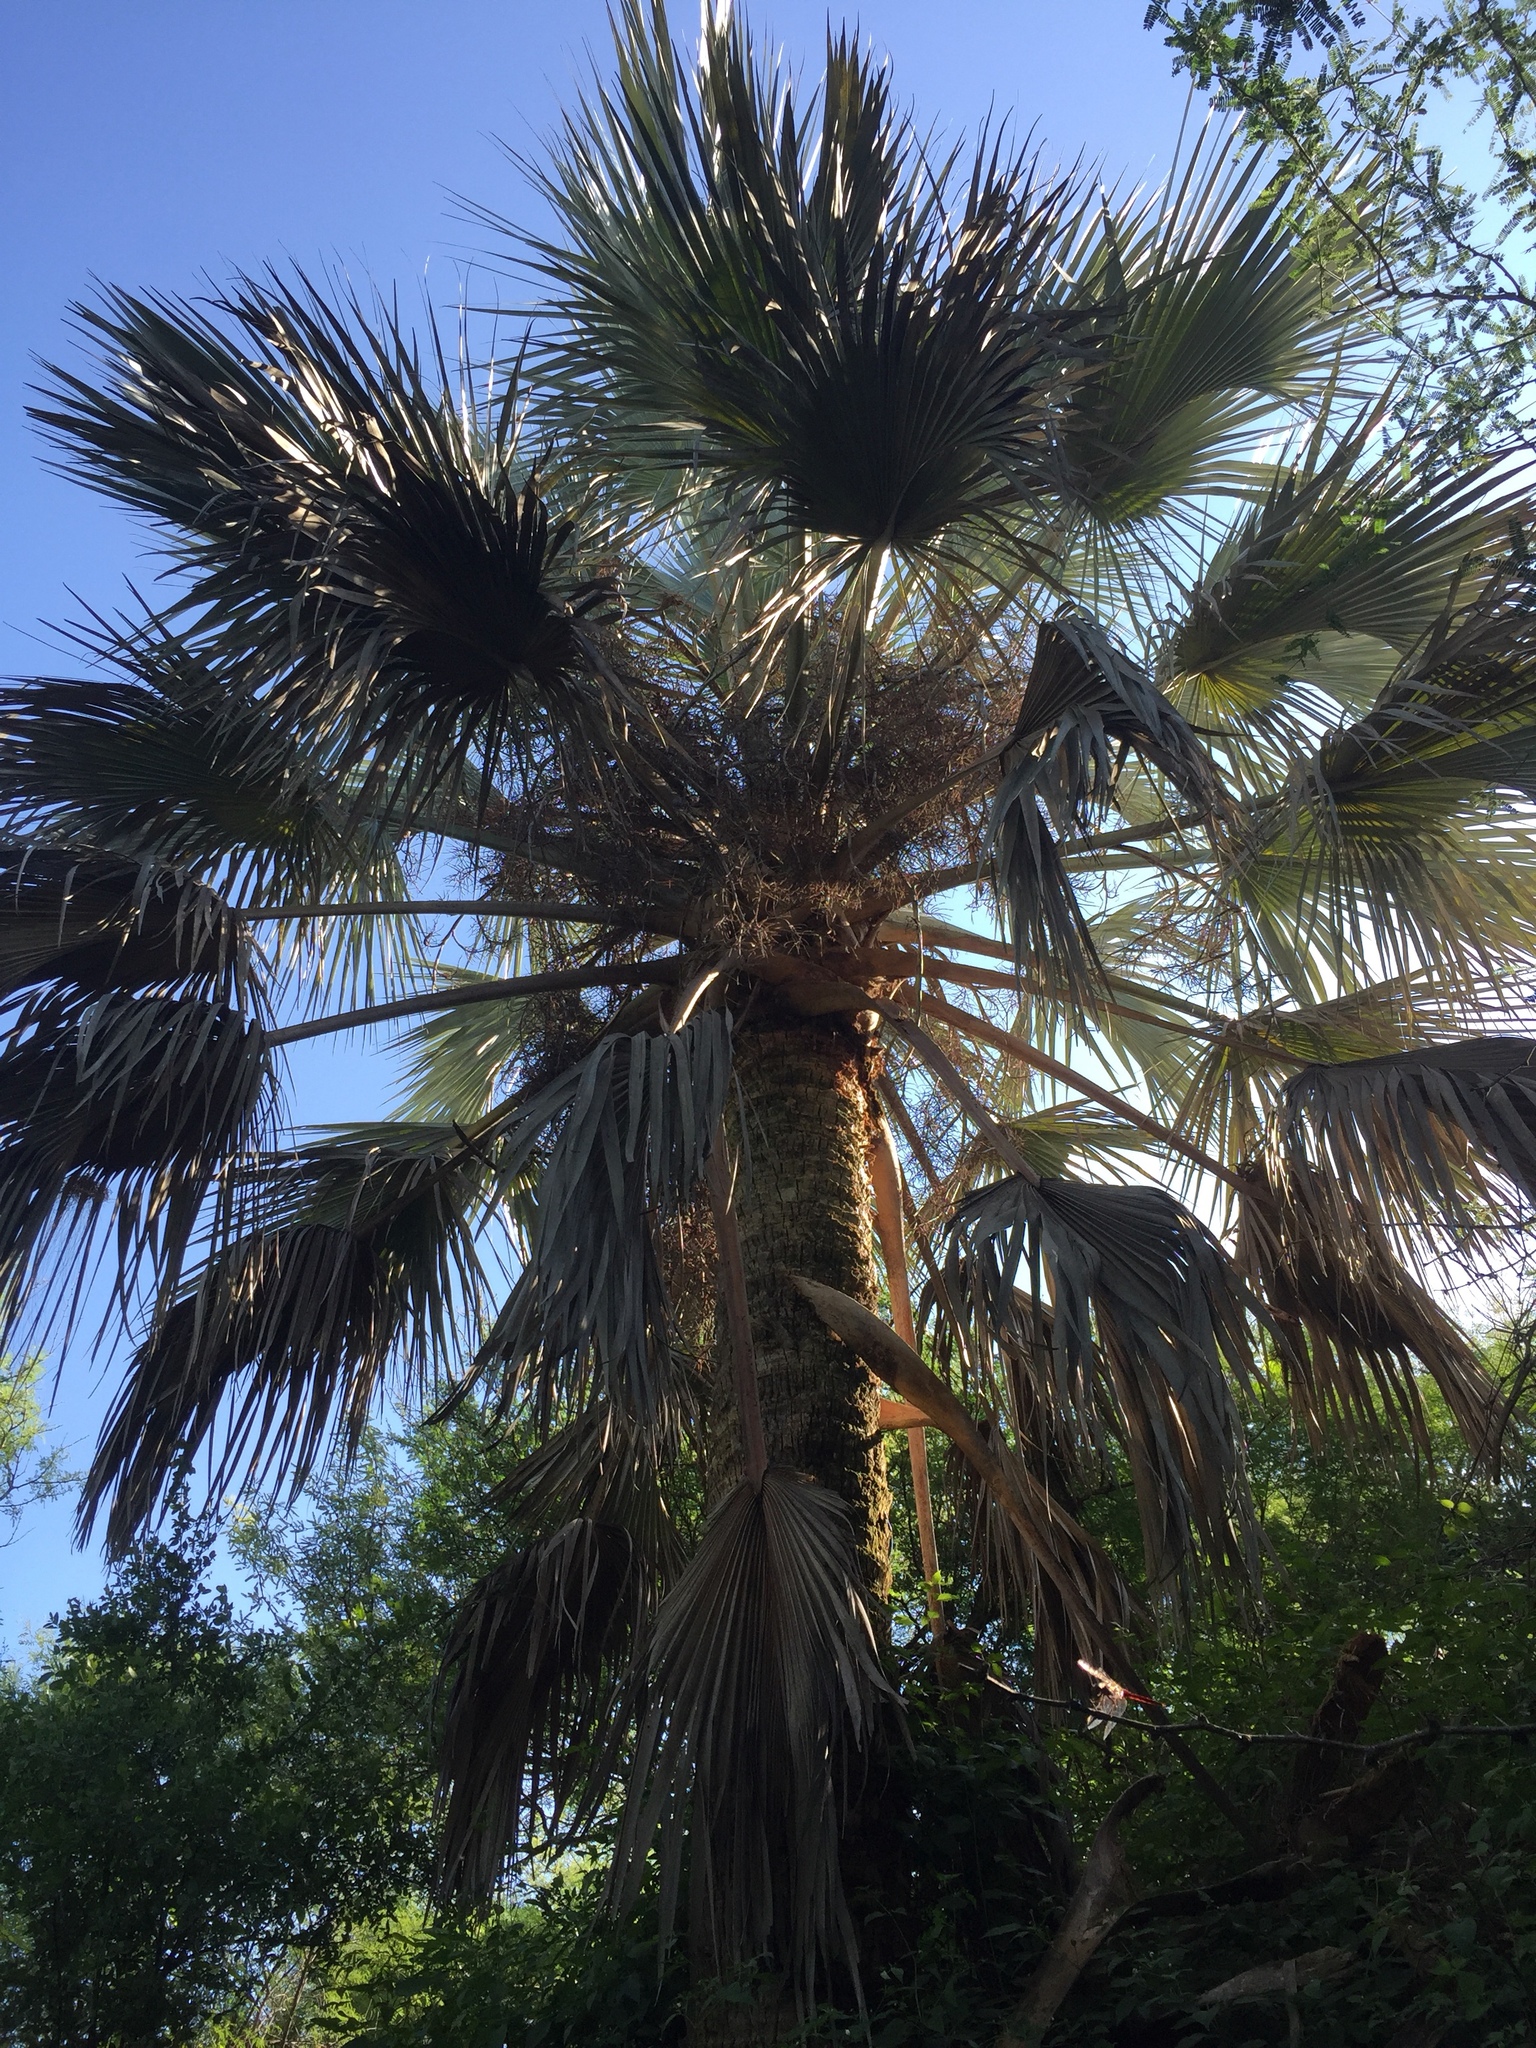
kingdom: Plantae
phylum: Tracheophyta
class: Liliopsida
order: Arecales
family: Arecaceae
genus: Sabal
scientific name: Sabal uresana
